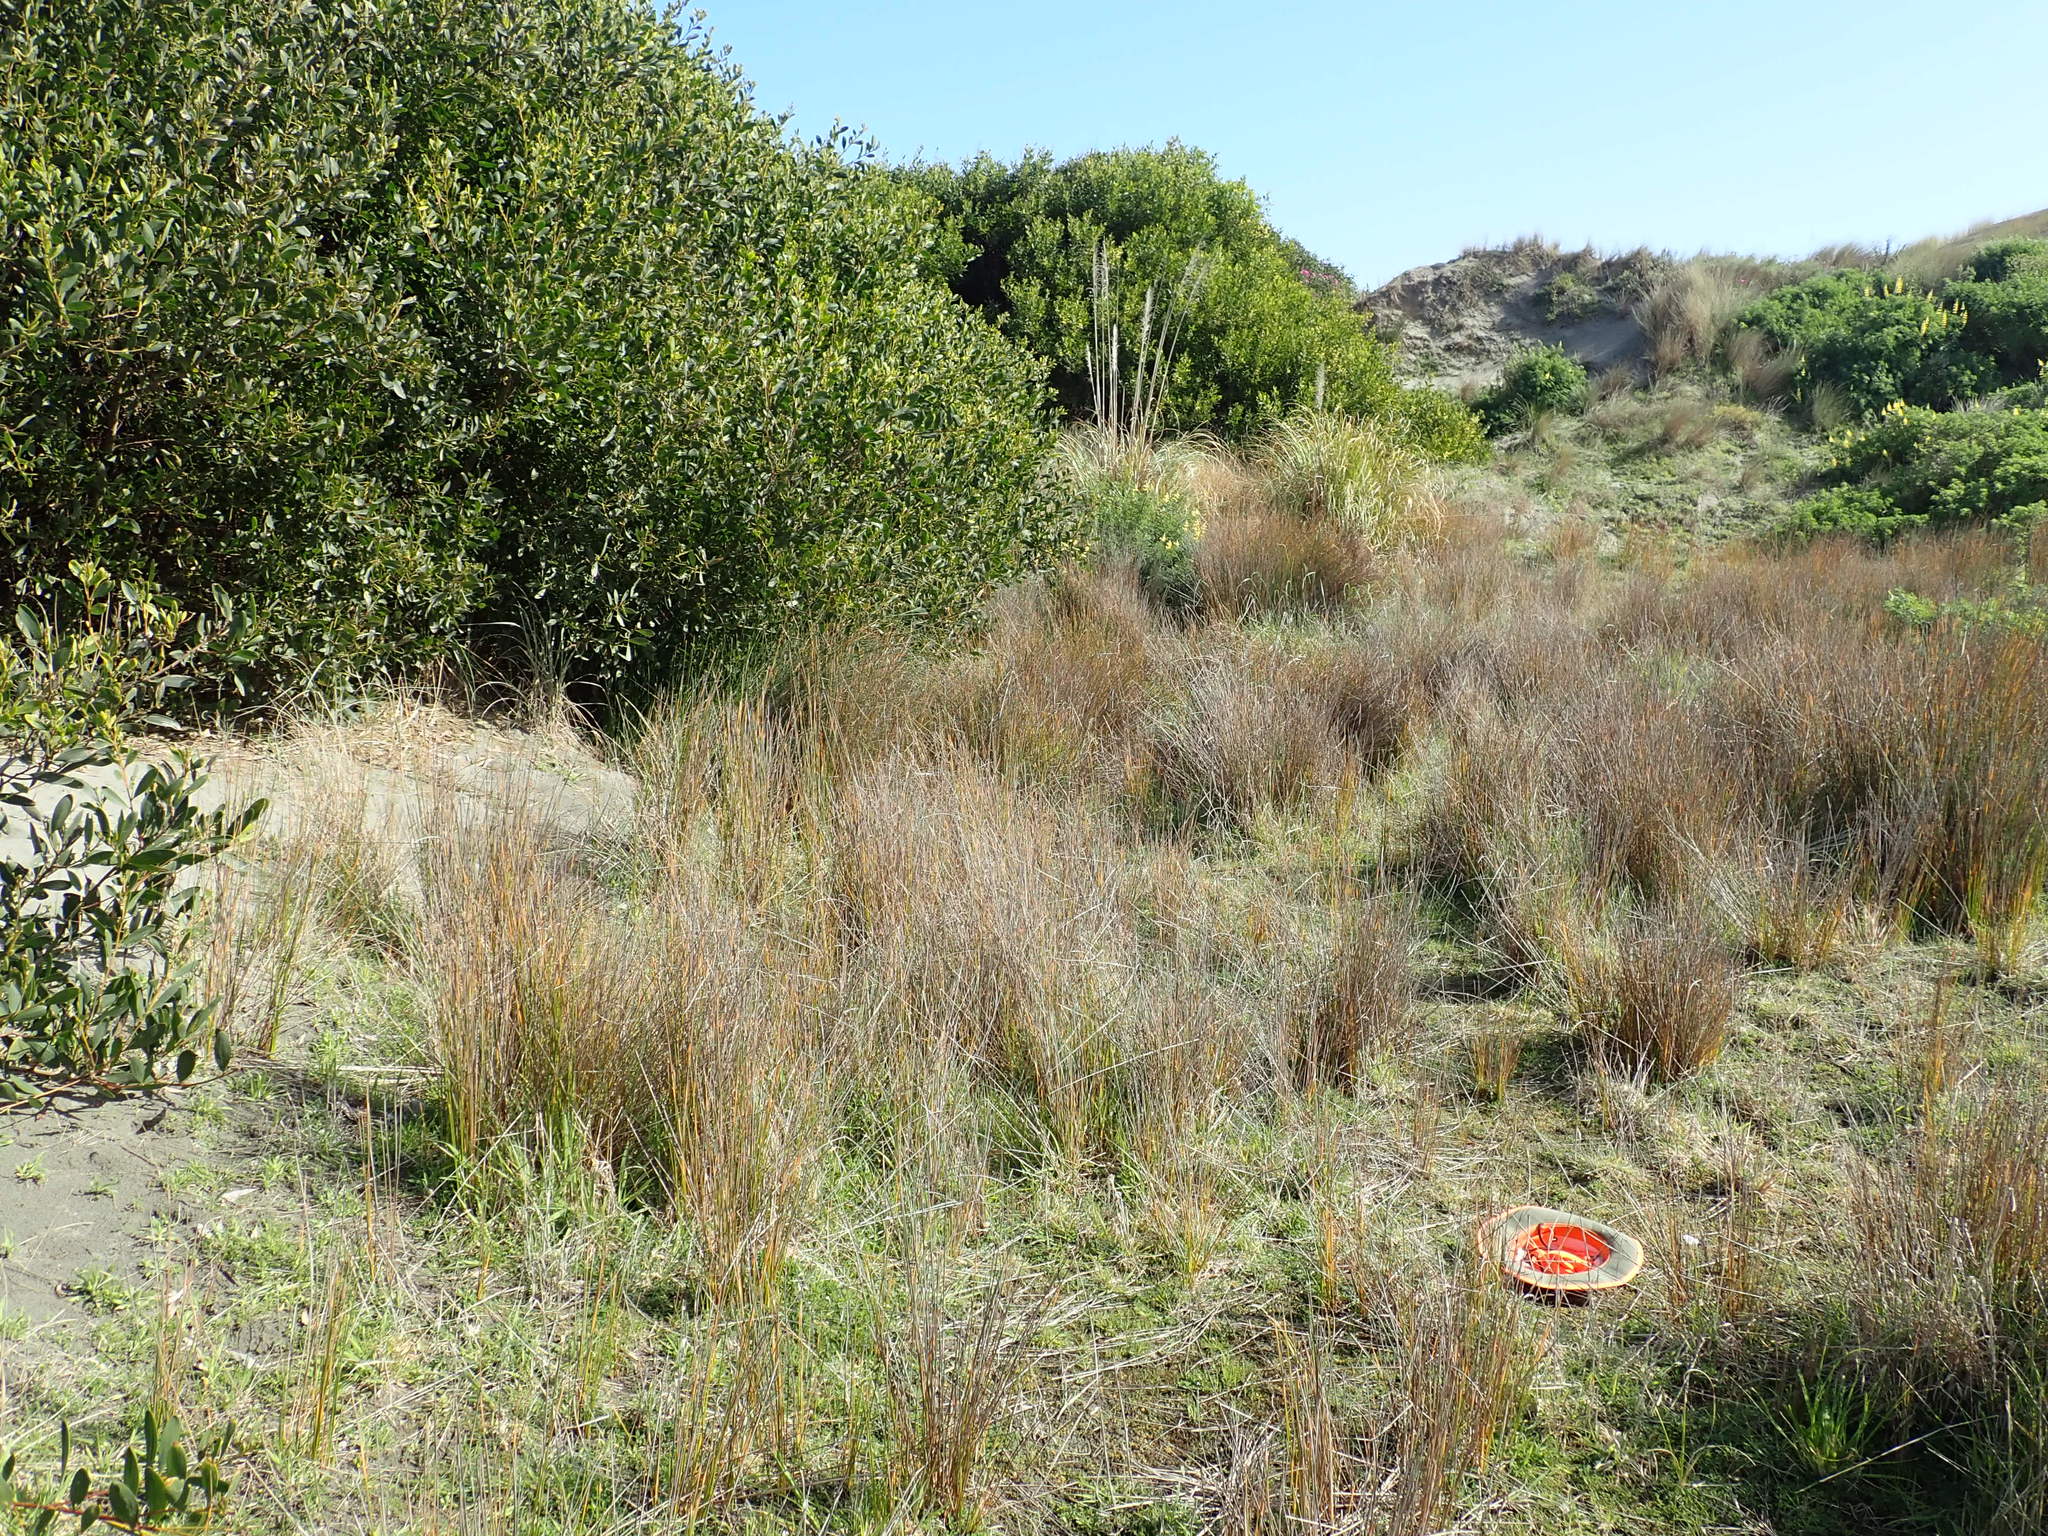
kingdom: Plantae
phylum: Tracheophyta
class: Liliopsida
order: Poales
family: Juncaceae
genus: Juncus
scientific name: Juncus caespiticius
